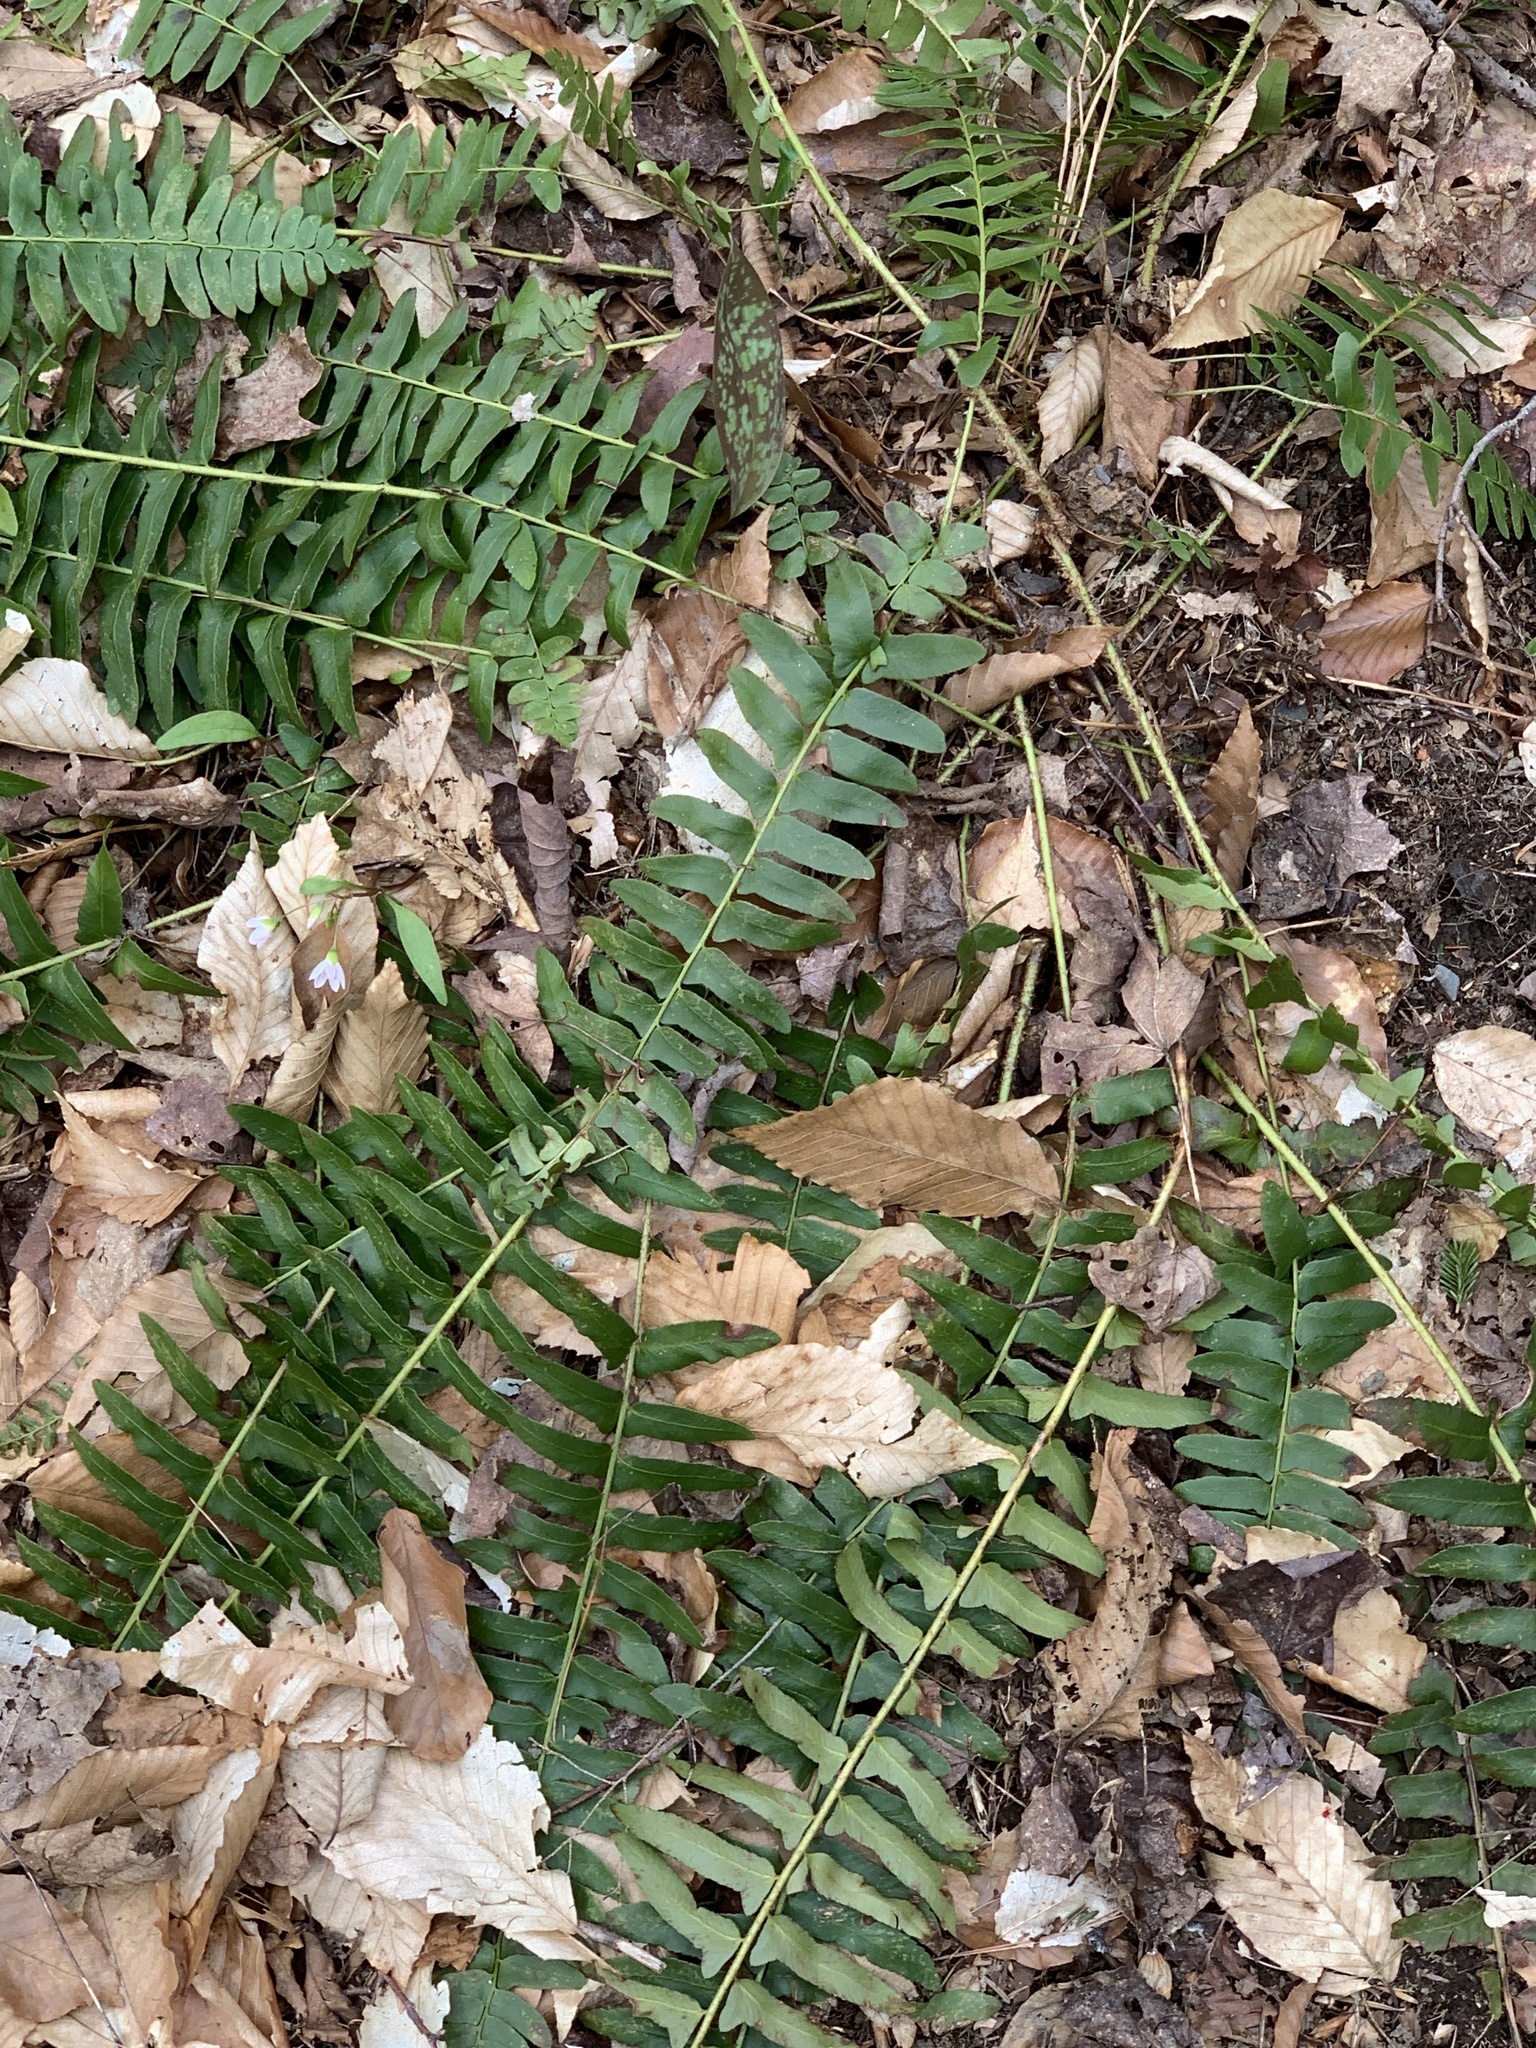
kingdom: Plantae
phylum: Tracheophyta
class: Polypodiopsida
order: Polypodiales
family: Dryopteridaceae
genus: Polystichum
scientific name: Polystichum acrostichoides
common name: Christmas fern
